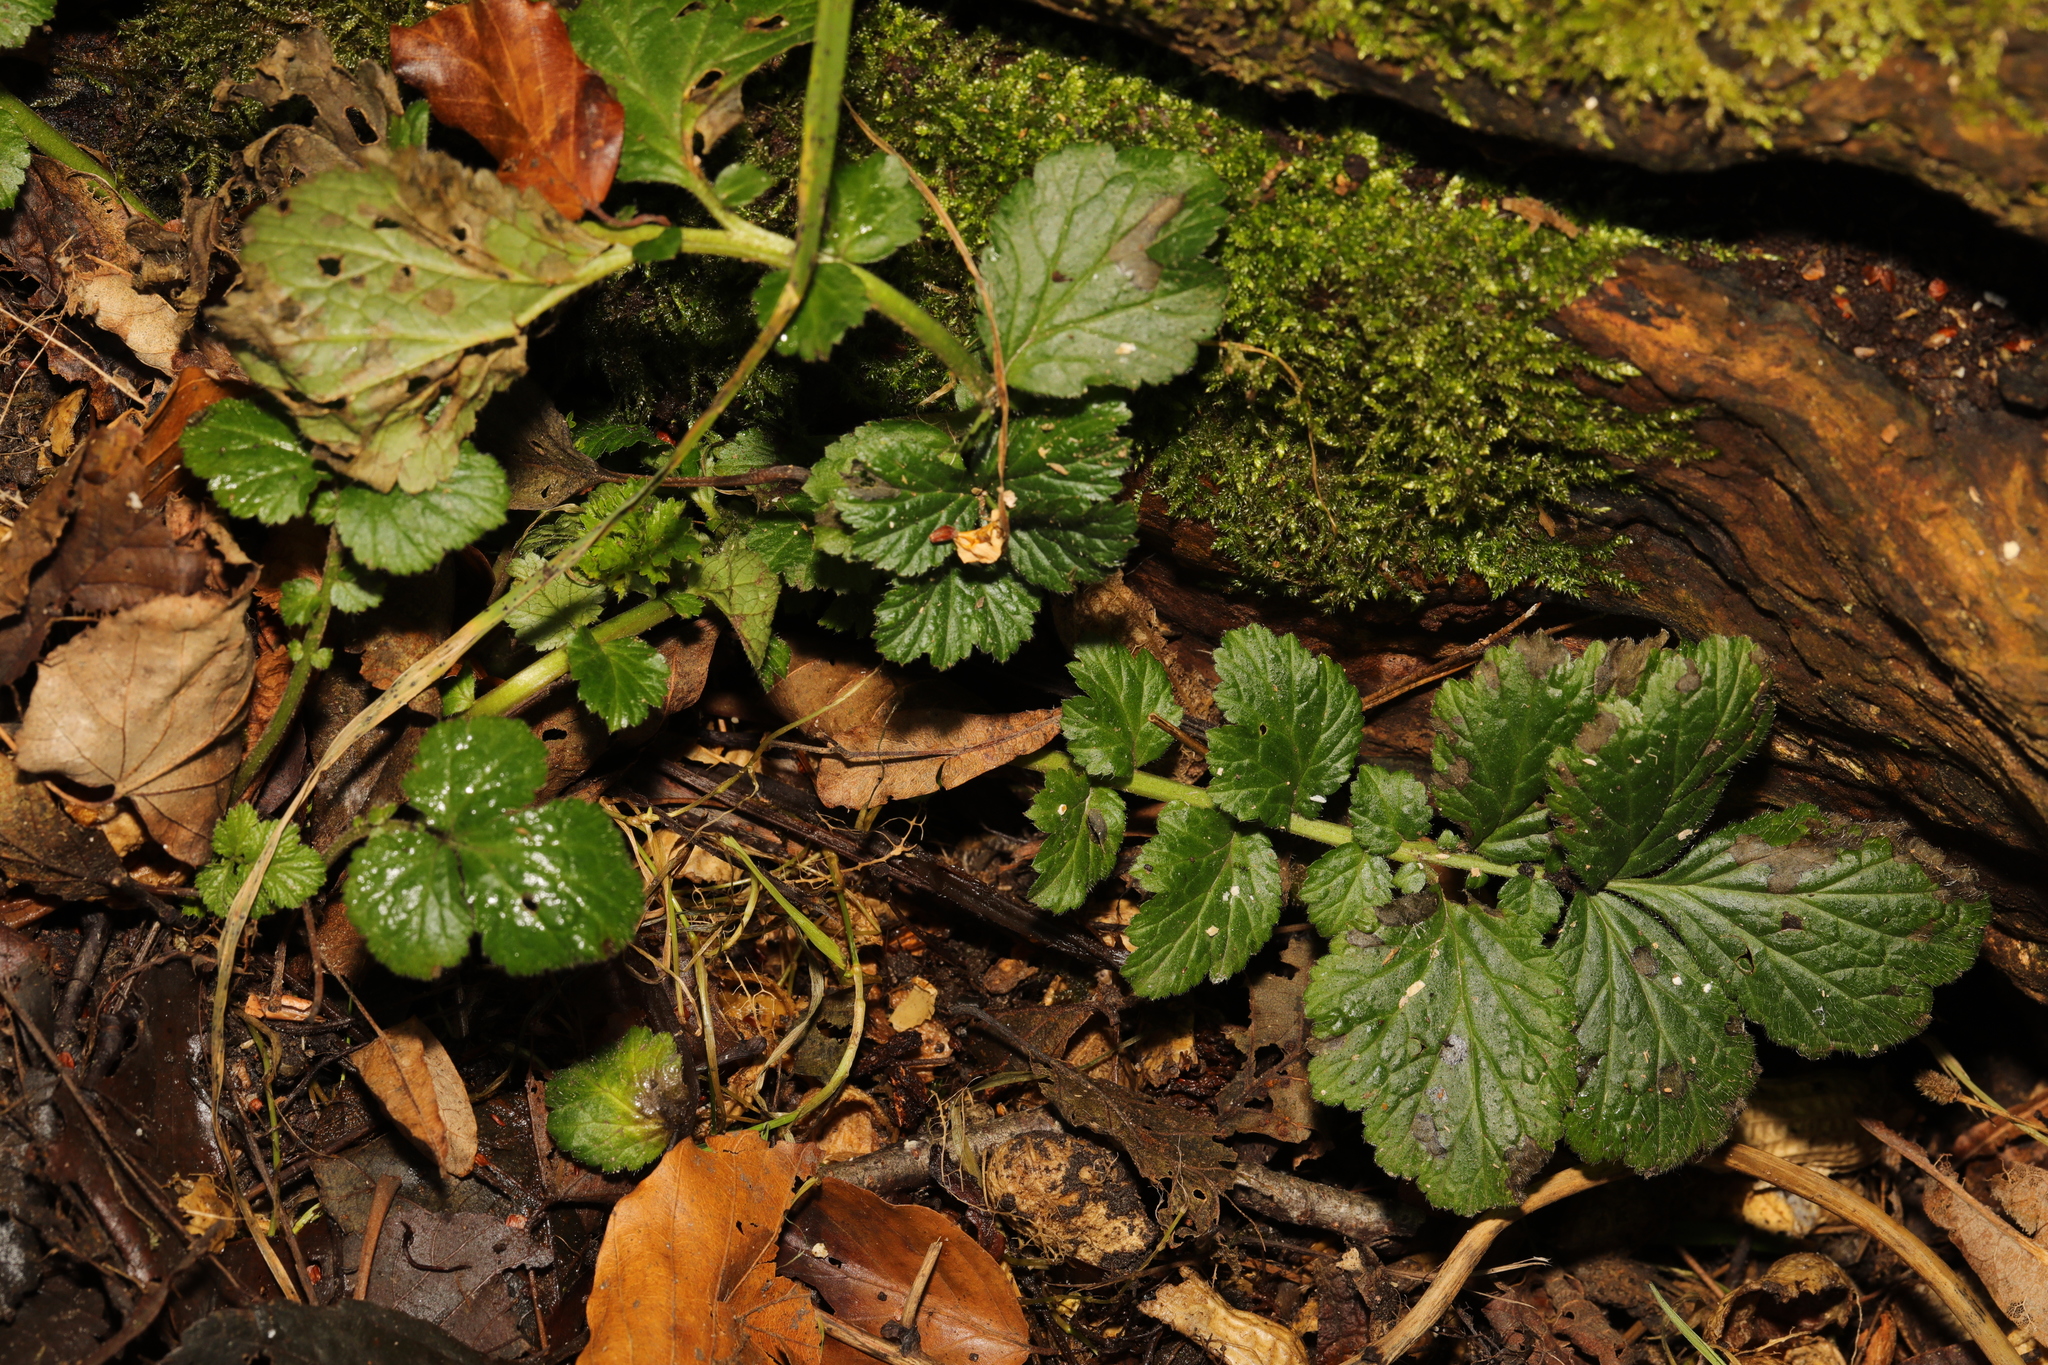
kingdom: Plantae
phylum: Tracheophyta
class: Magnoliopsida
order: Rosales
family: Rosaceae
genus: Geum
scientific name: Geum urbanum
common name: Wood avens
